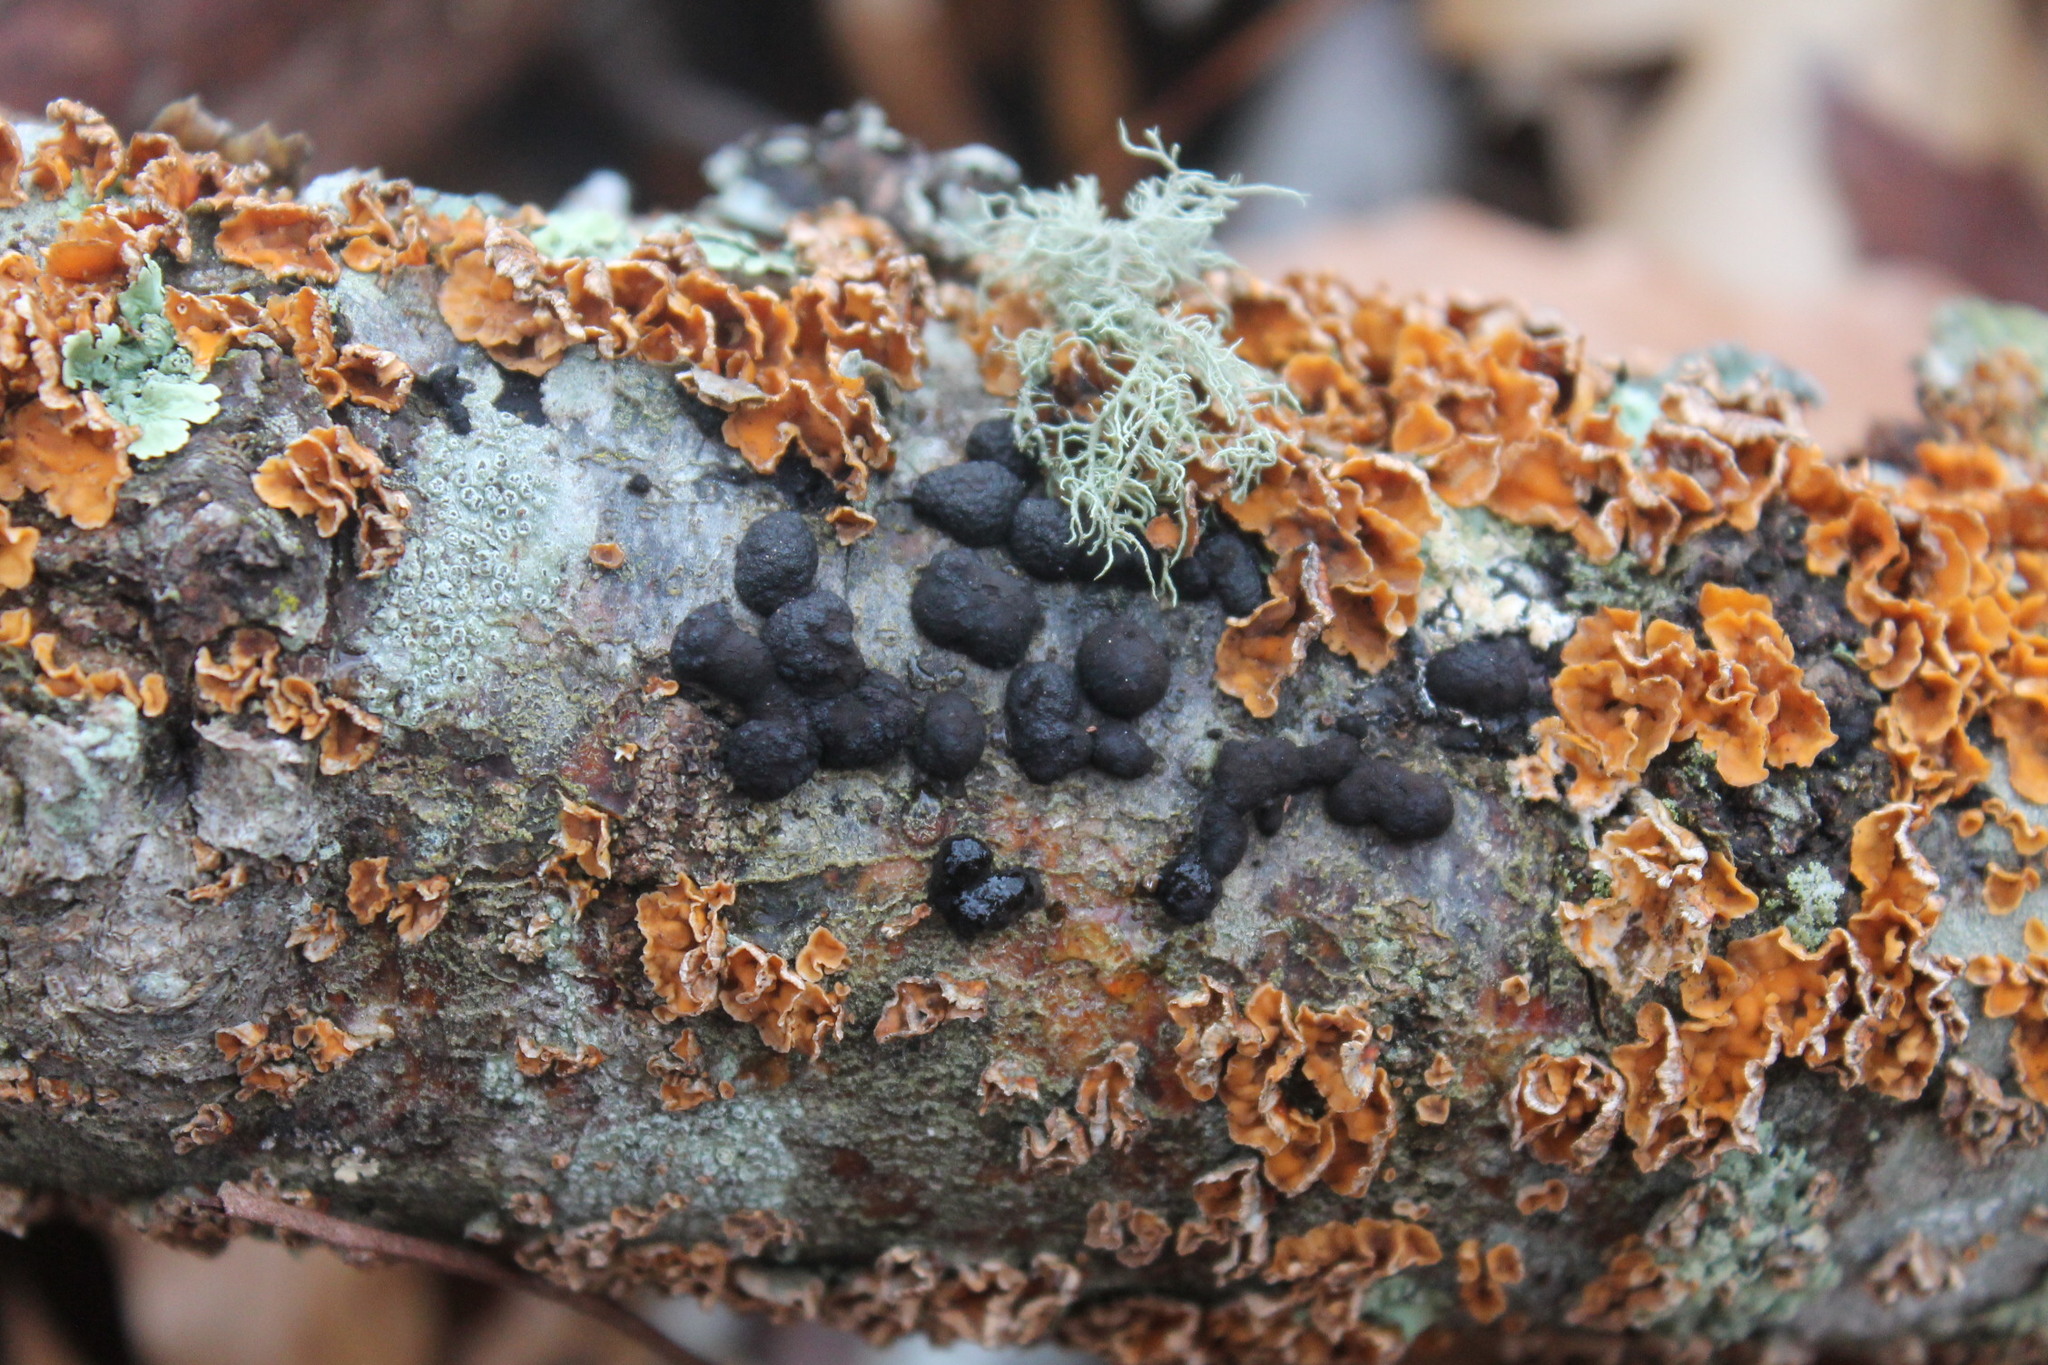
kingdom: Fungi
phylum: Ascomycota
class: Sordariomycetes
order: Xylariales
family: Hypoxylaceae
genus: Jackrogersella
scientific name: Jackrogersella multiformis
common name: Birch woodwart
